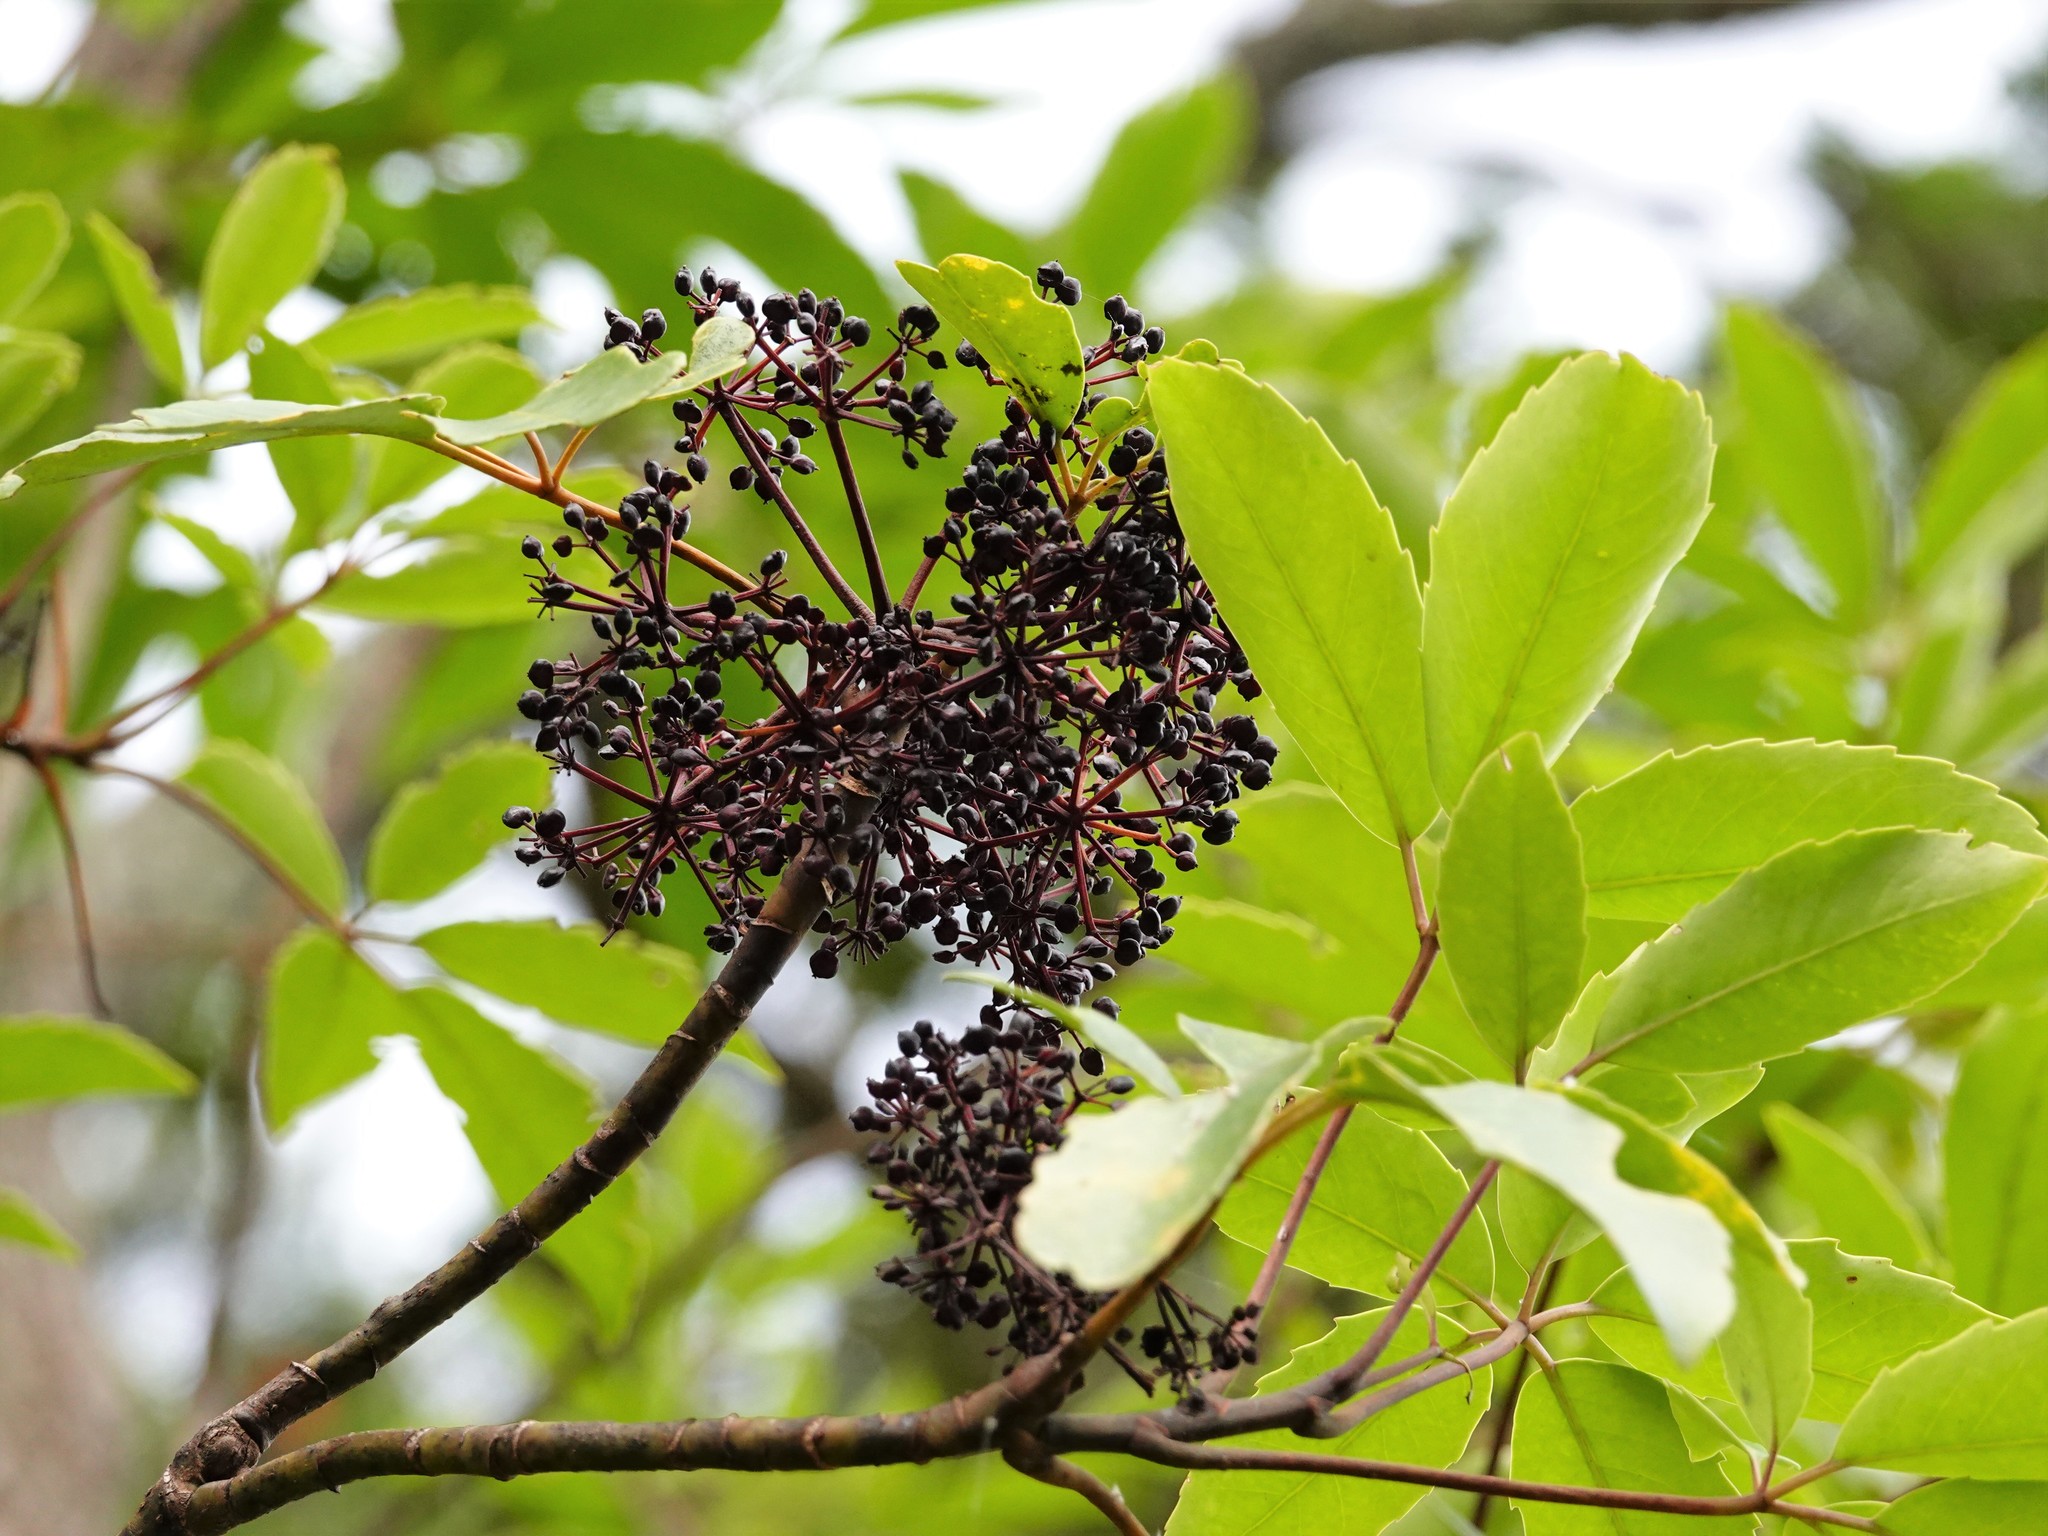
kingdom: Plantae
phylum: Tracheophyta
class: Magnoliopsida
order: Apiales
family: Araliaceae
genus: Neopanax
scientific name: Neopanax arboreus
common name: Five-fingers
